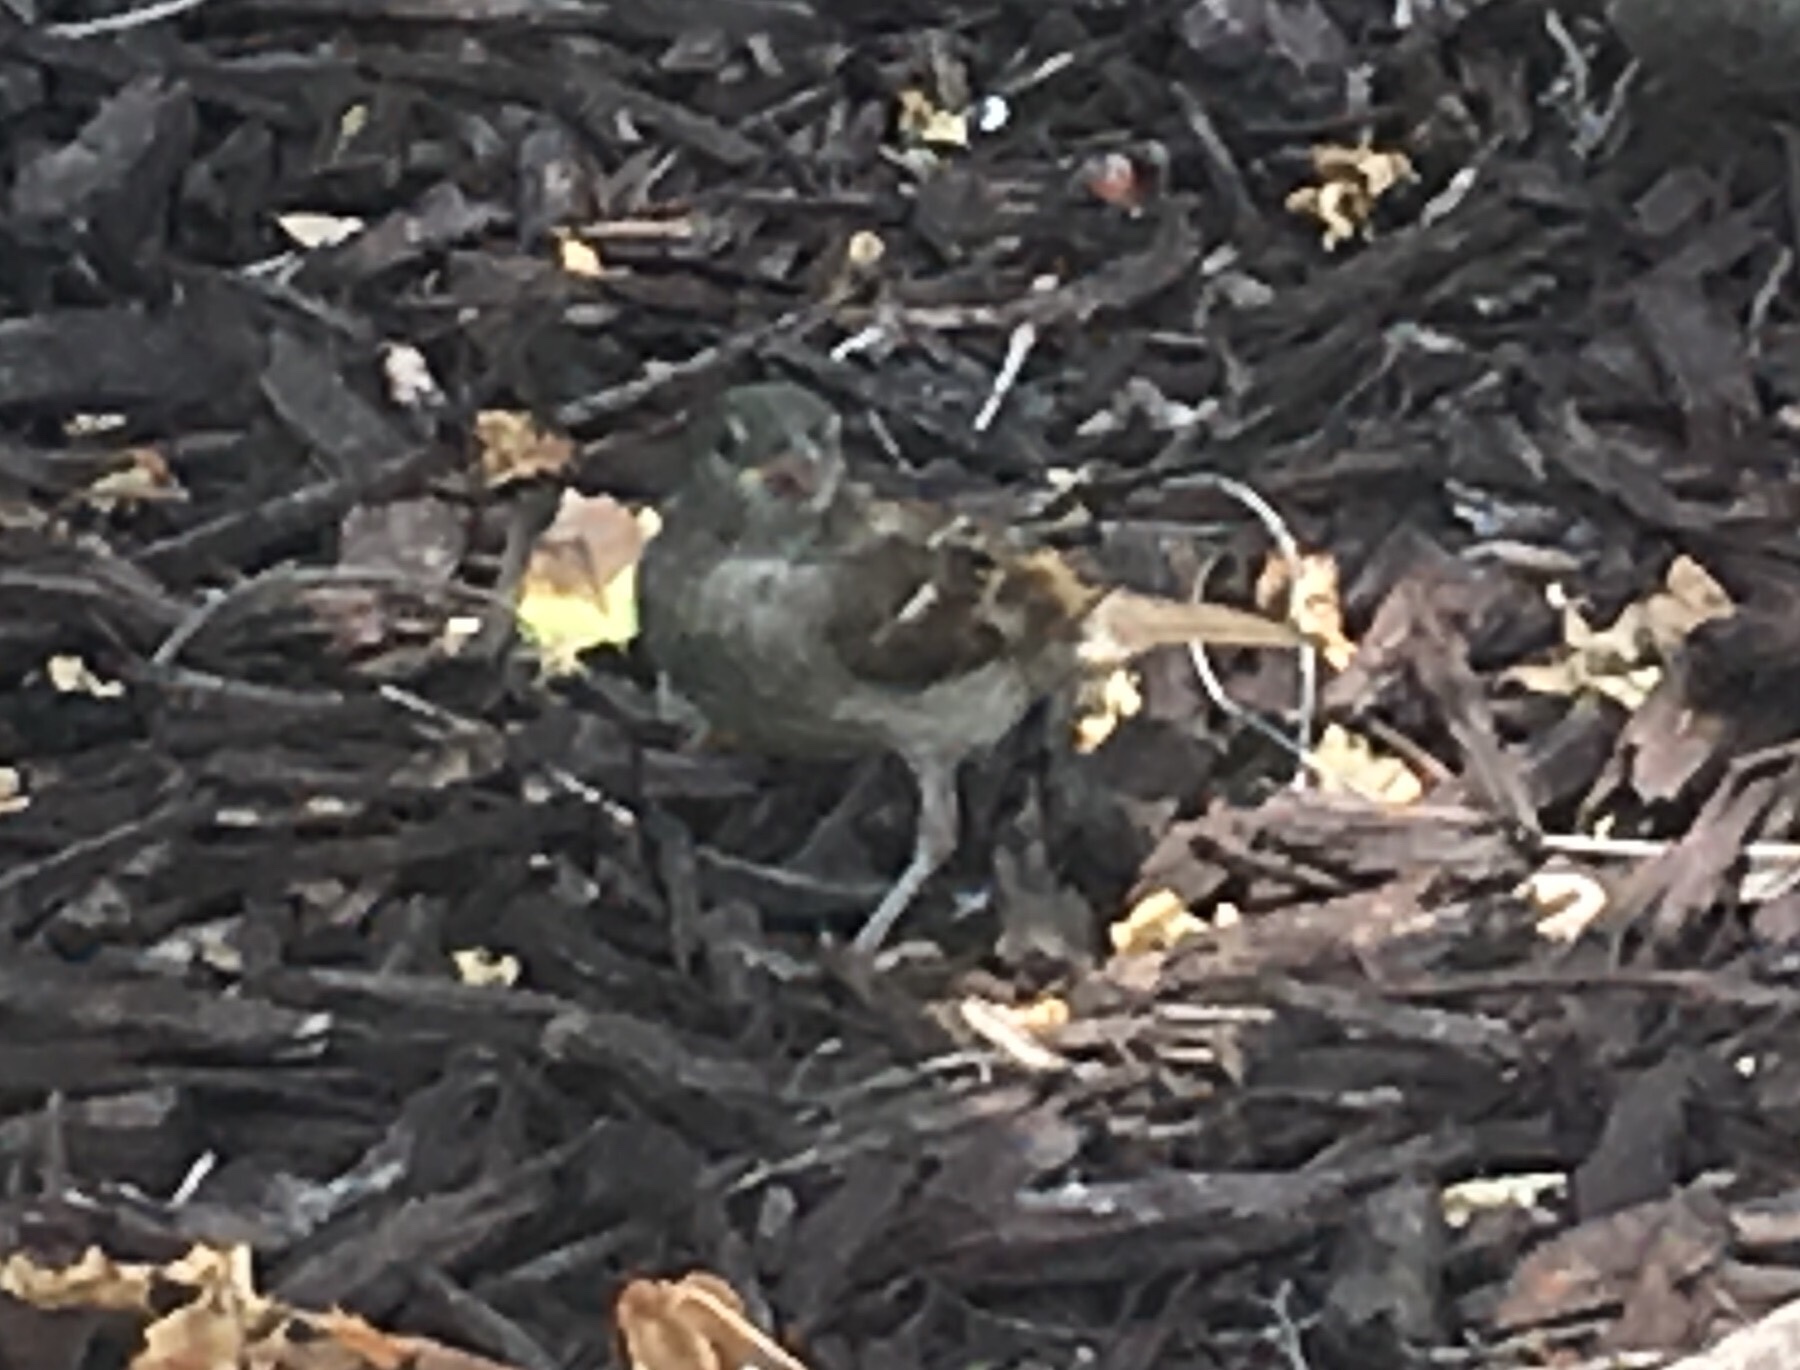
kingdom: Animalia
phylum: Chordata
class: Aves
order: Passeriformes
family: Passeridae
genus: Passer
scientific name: Passer domesticus
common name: House sparrow
